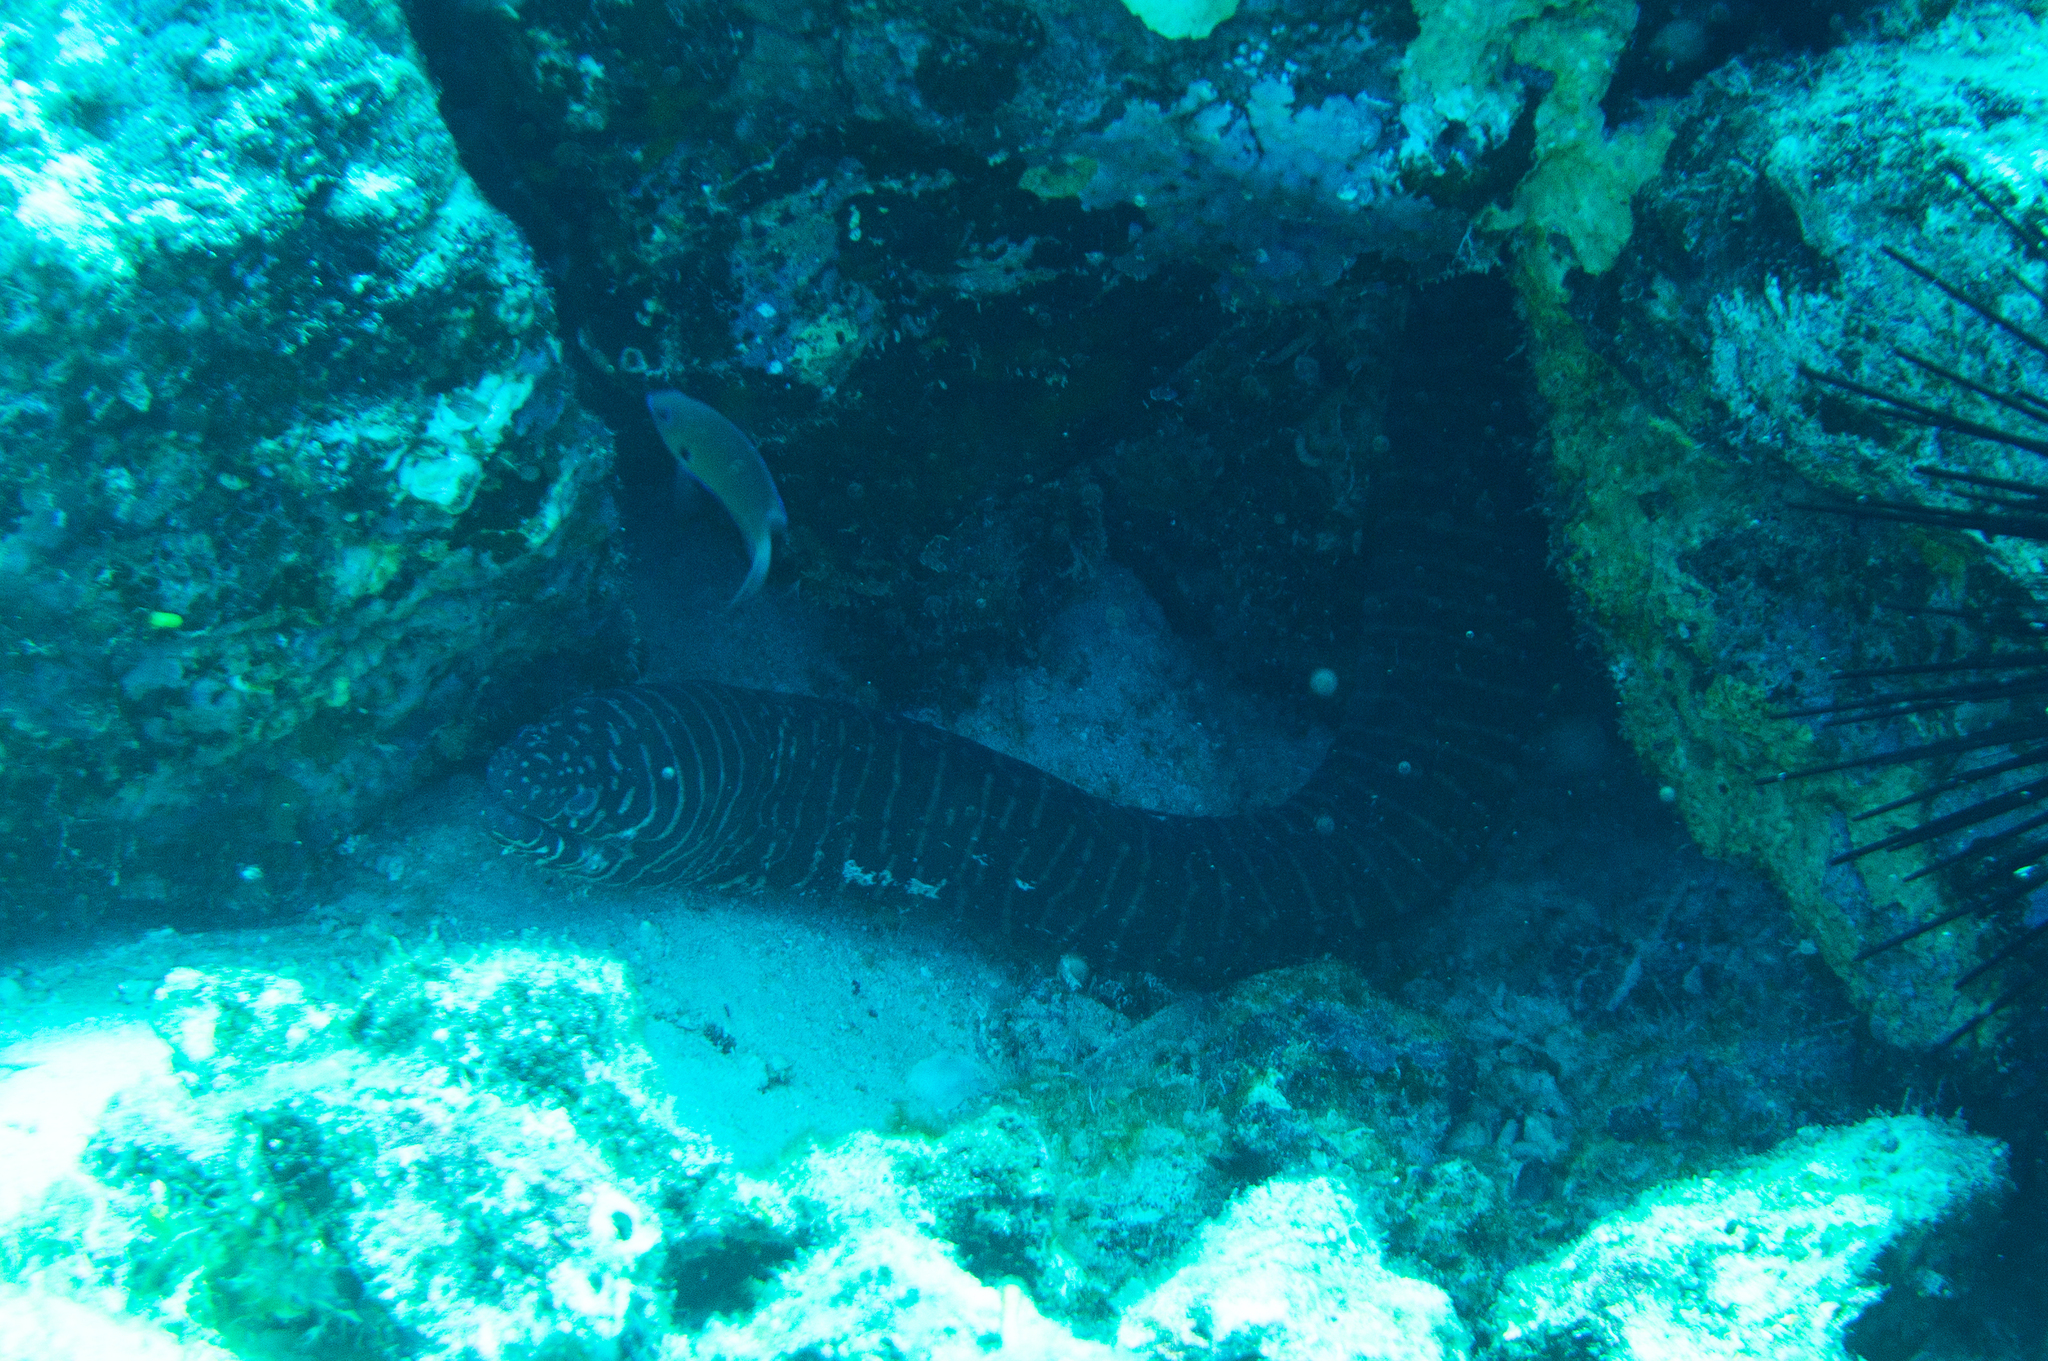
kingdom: Animalia
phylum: Chordata
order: Anguilliformes
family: Muraenidae
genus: Gymnomuraena
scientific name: Gymnomuraena zebra
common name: Zebra moray
